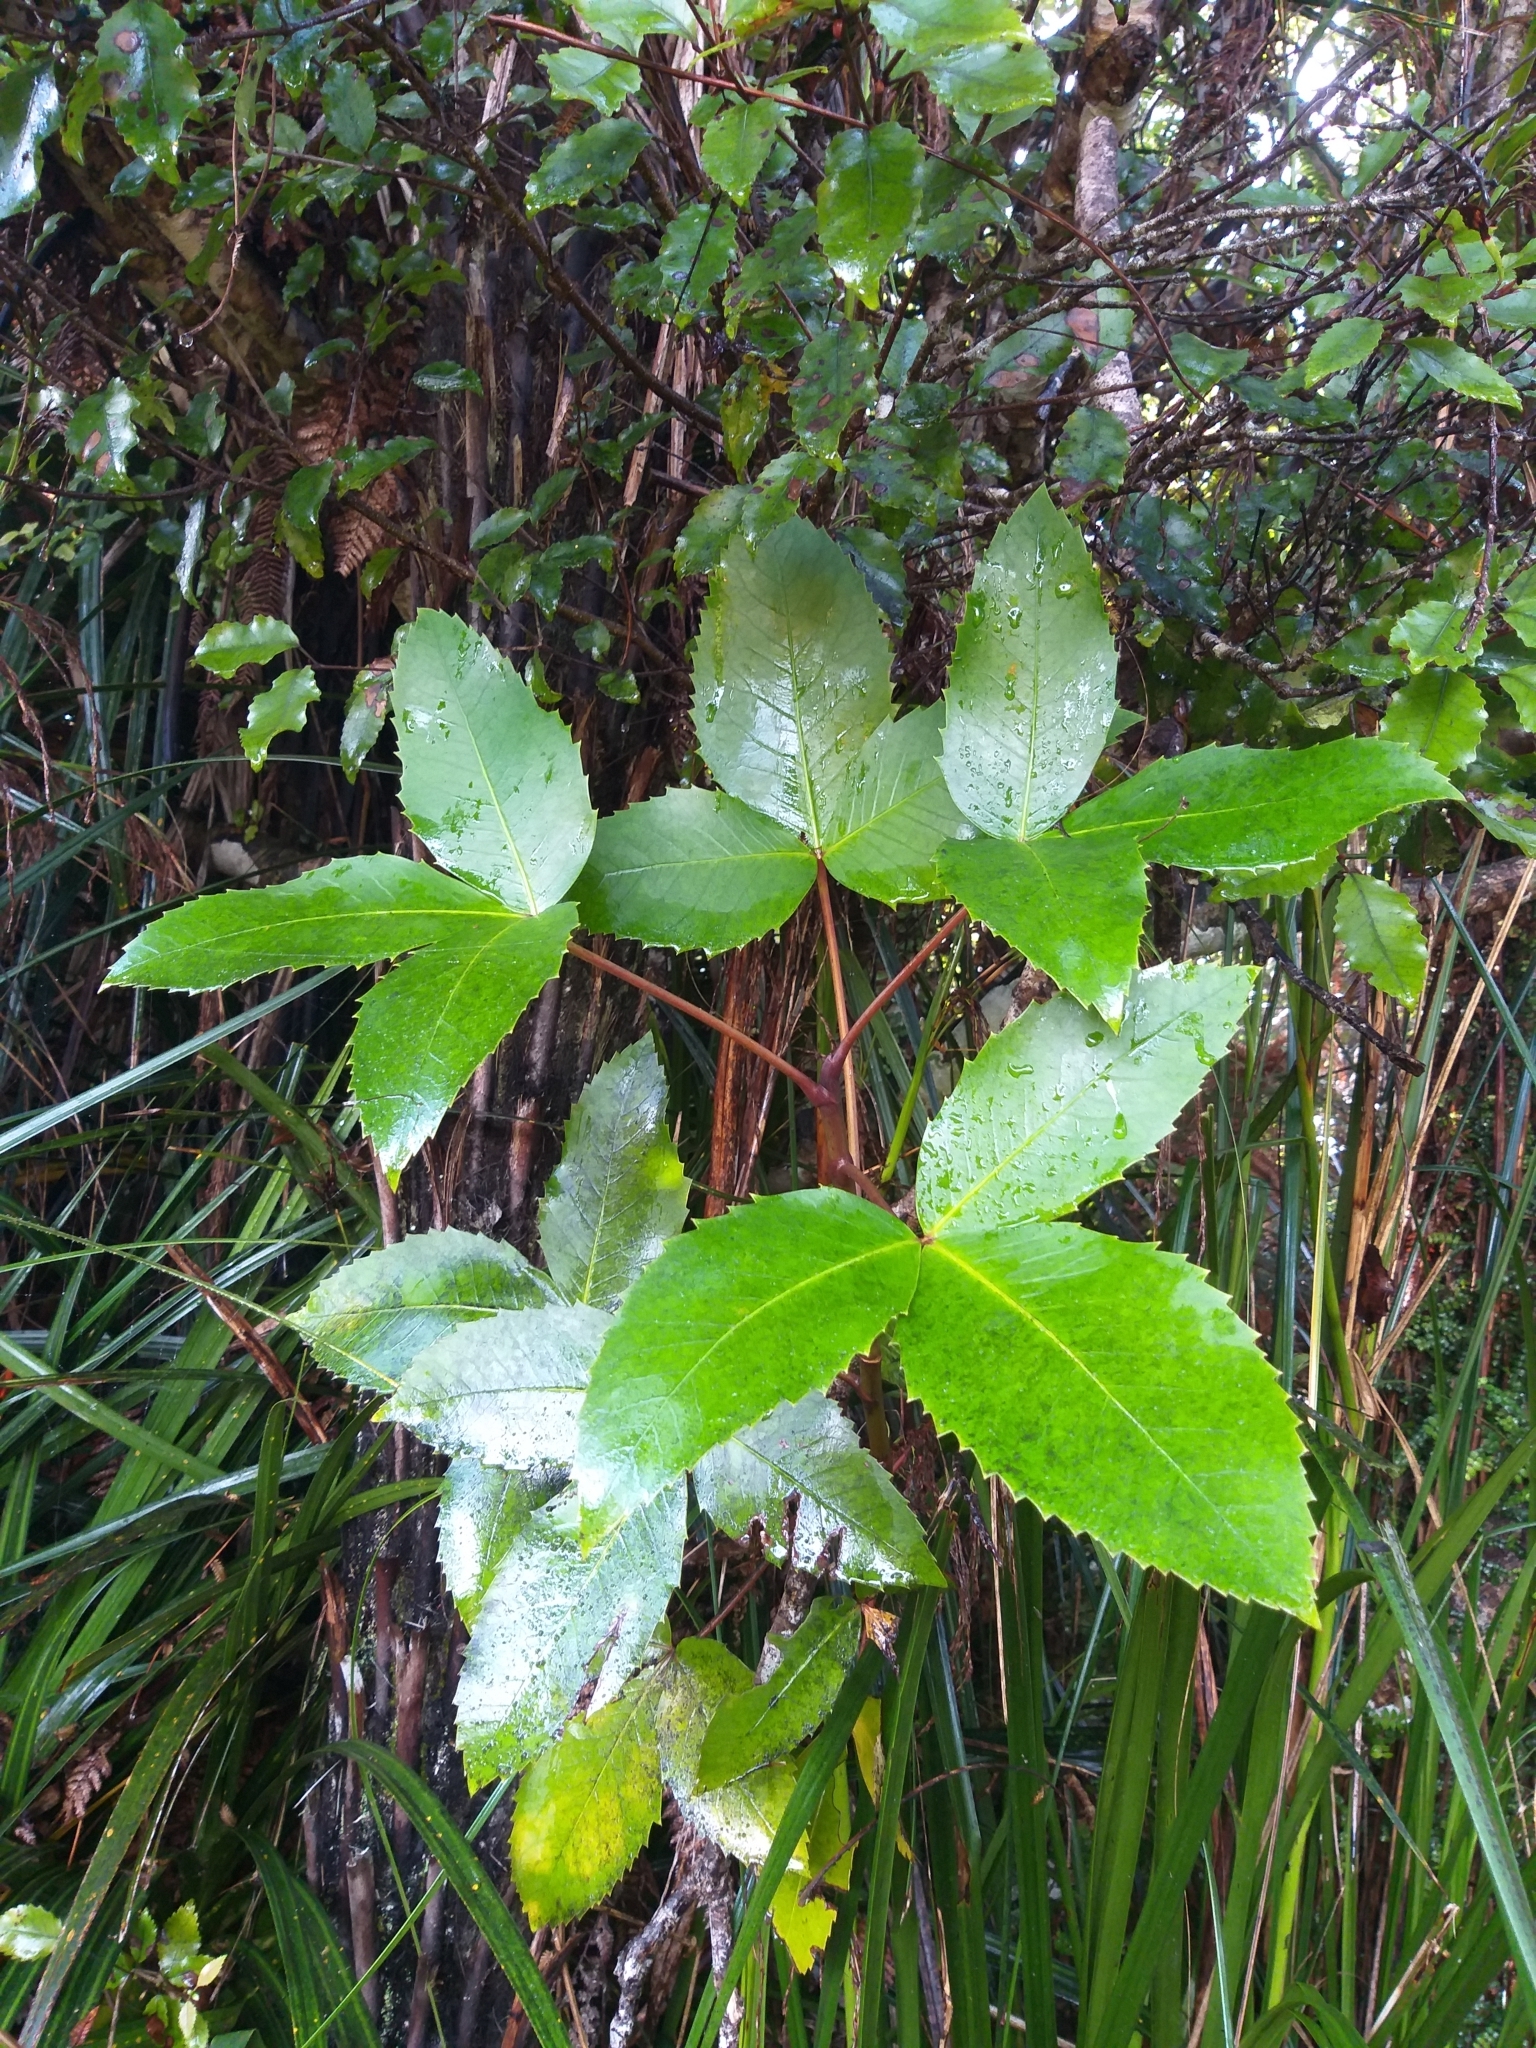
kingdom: Plantae
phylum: Tracheophyta
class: Magnoliopsida
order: Apiales
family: Araliaceae
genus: Neopanax
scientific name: Neopanax colensoi
